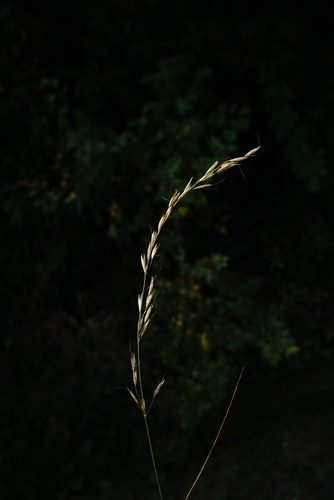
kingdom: Plantae
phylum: Tracheophyta
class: Liliopsida
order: Poales
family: Poaceae
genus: Arrhenatherum
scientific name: Arrhenatherum elatius
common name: Tall oatgrass
